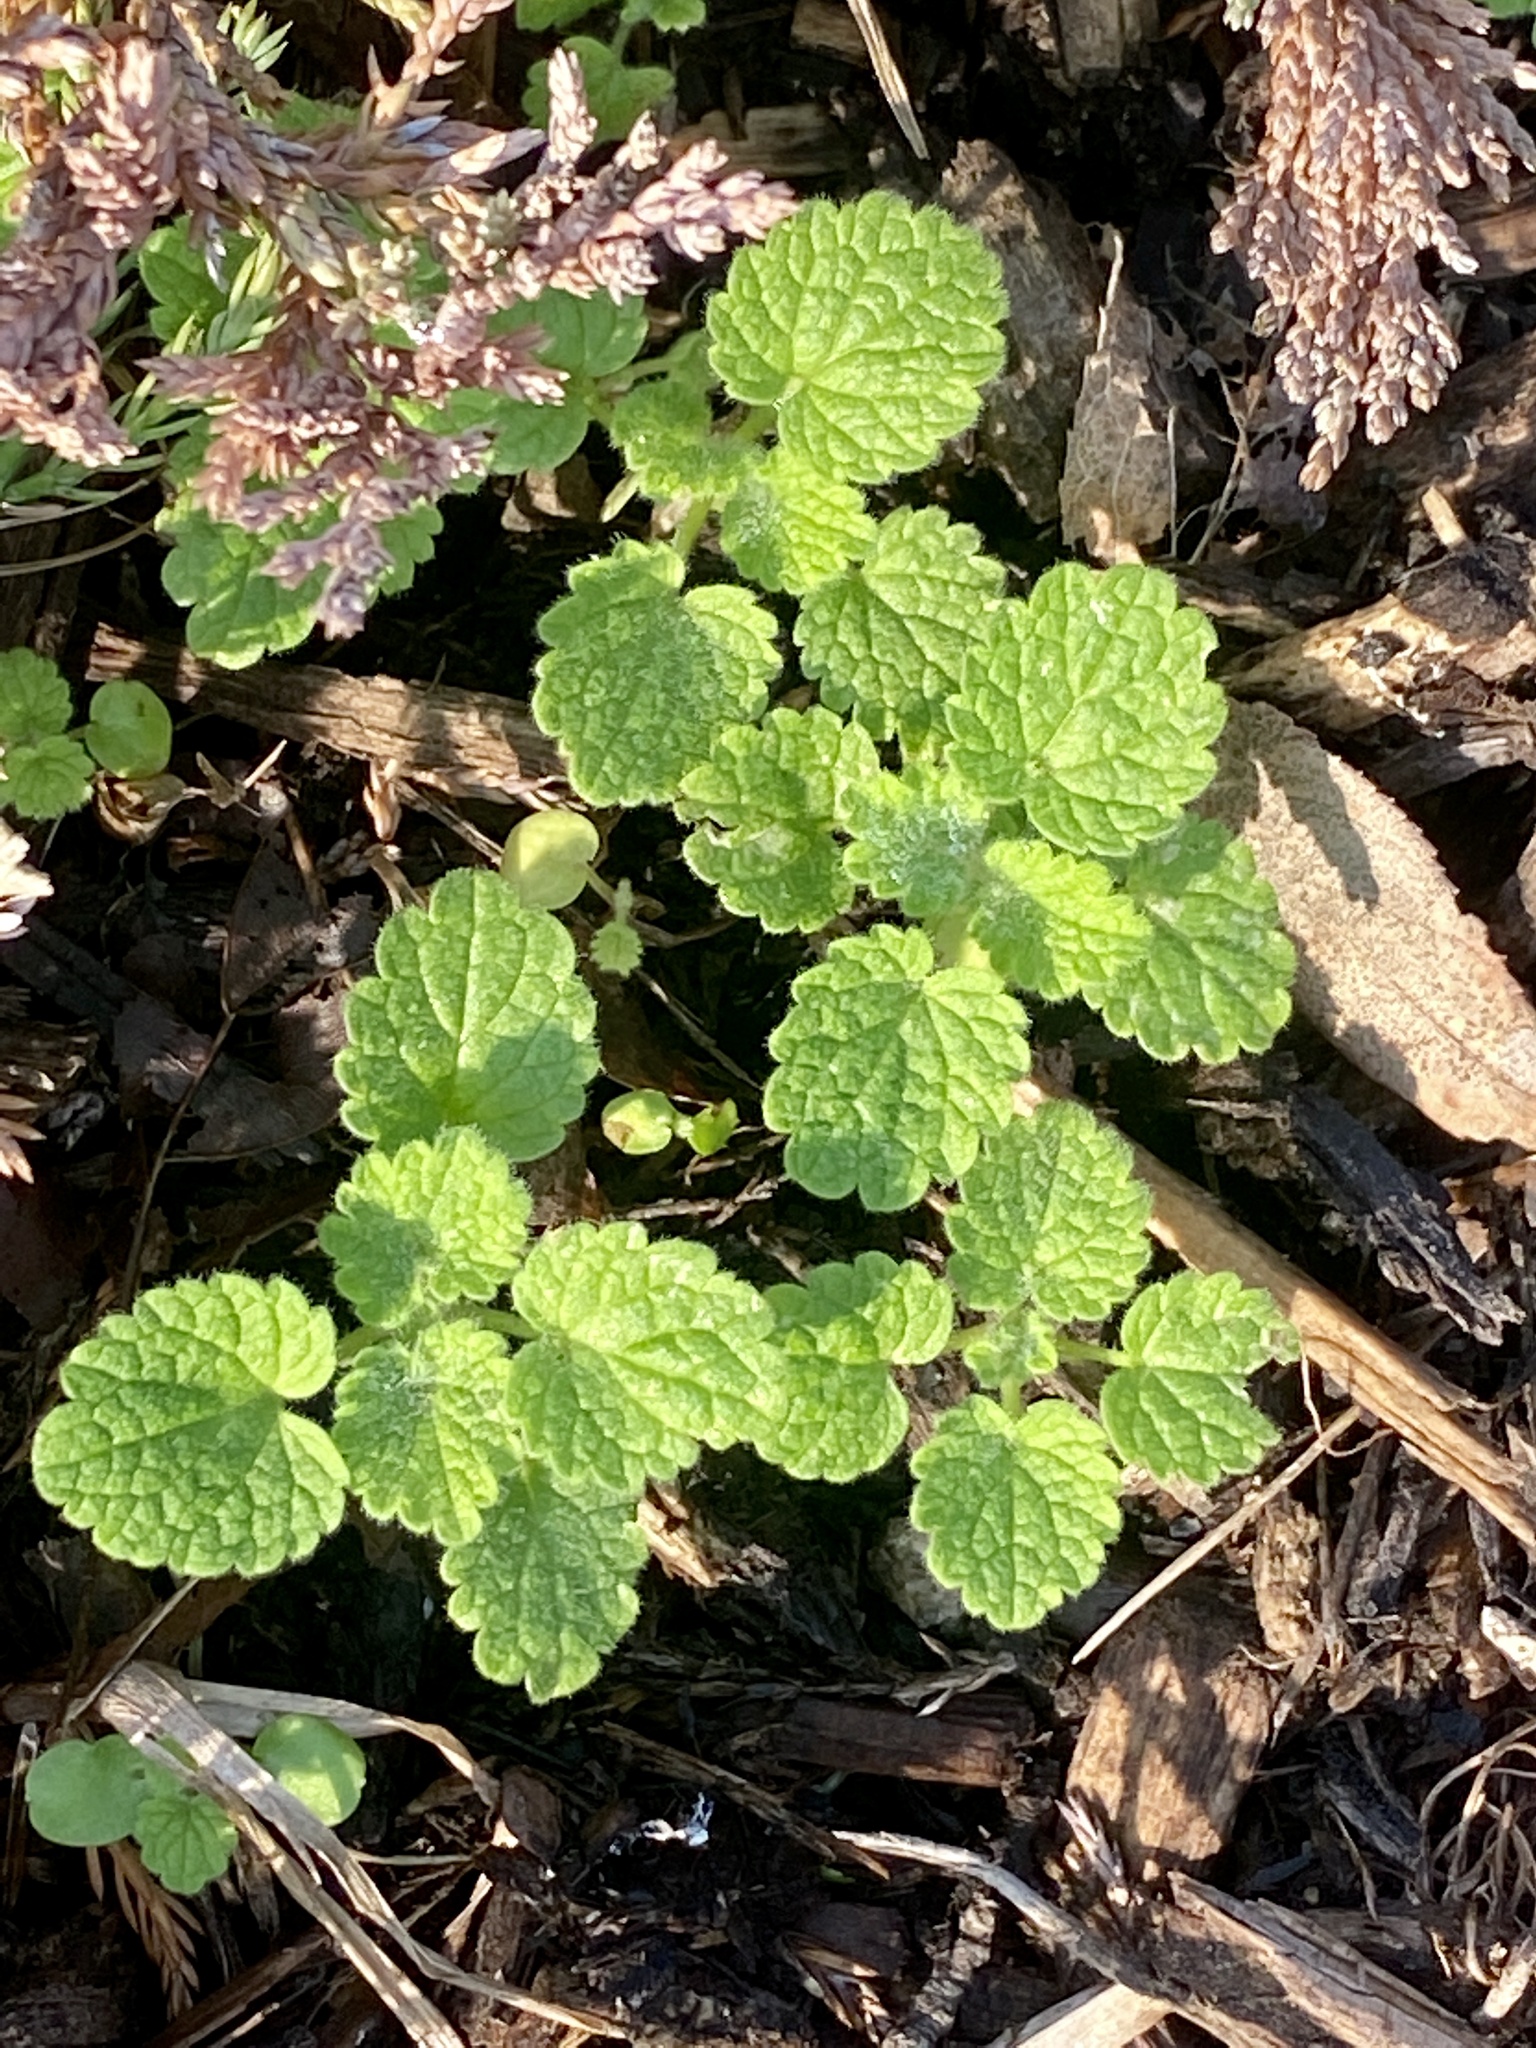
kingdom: Plantae
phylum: Tracheophyta
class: Magnoliopsida
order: Lamiales
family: Lamiaceae
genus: Lamium
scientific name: Lamium purpureum
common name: Red dead-nettle
